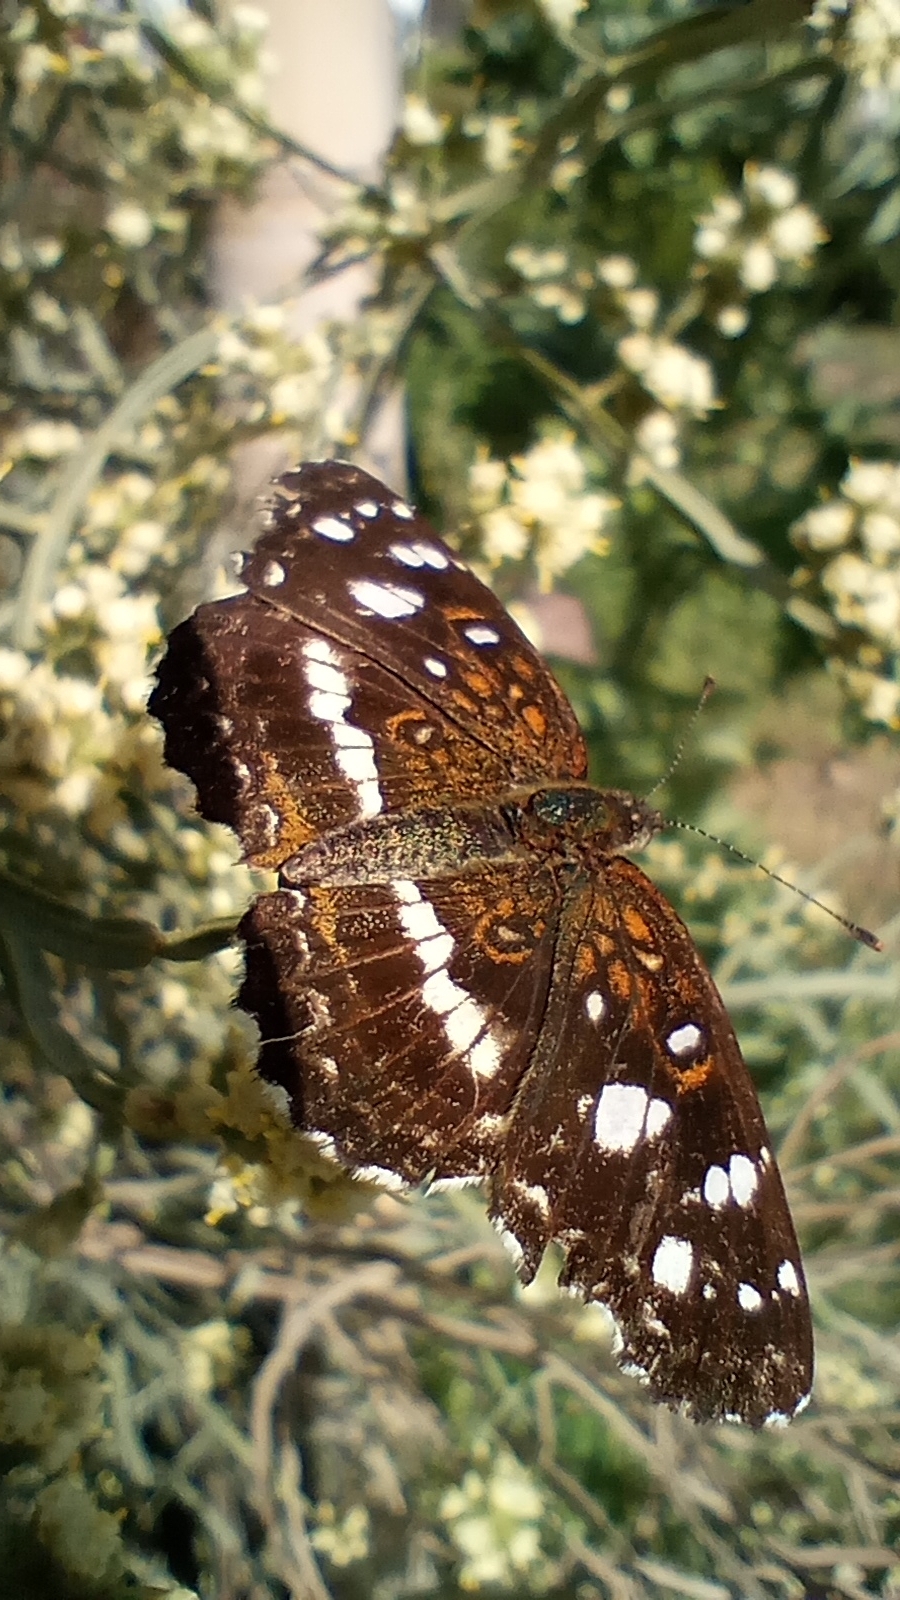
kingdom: Animalia
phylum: Arthropoda
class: Insecta
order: Lepidoptera
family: Nymphalidae
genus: Ortilia
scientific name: Ortilia ithra
